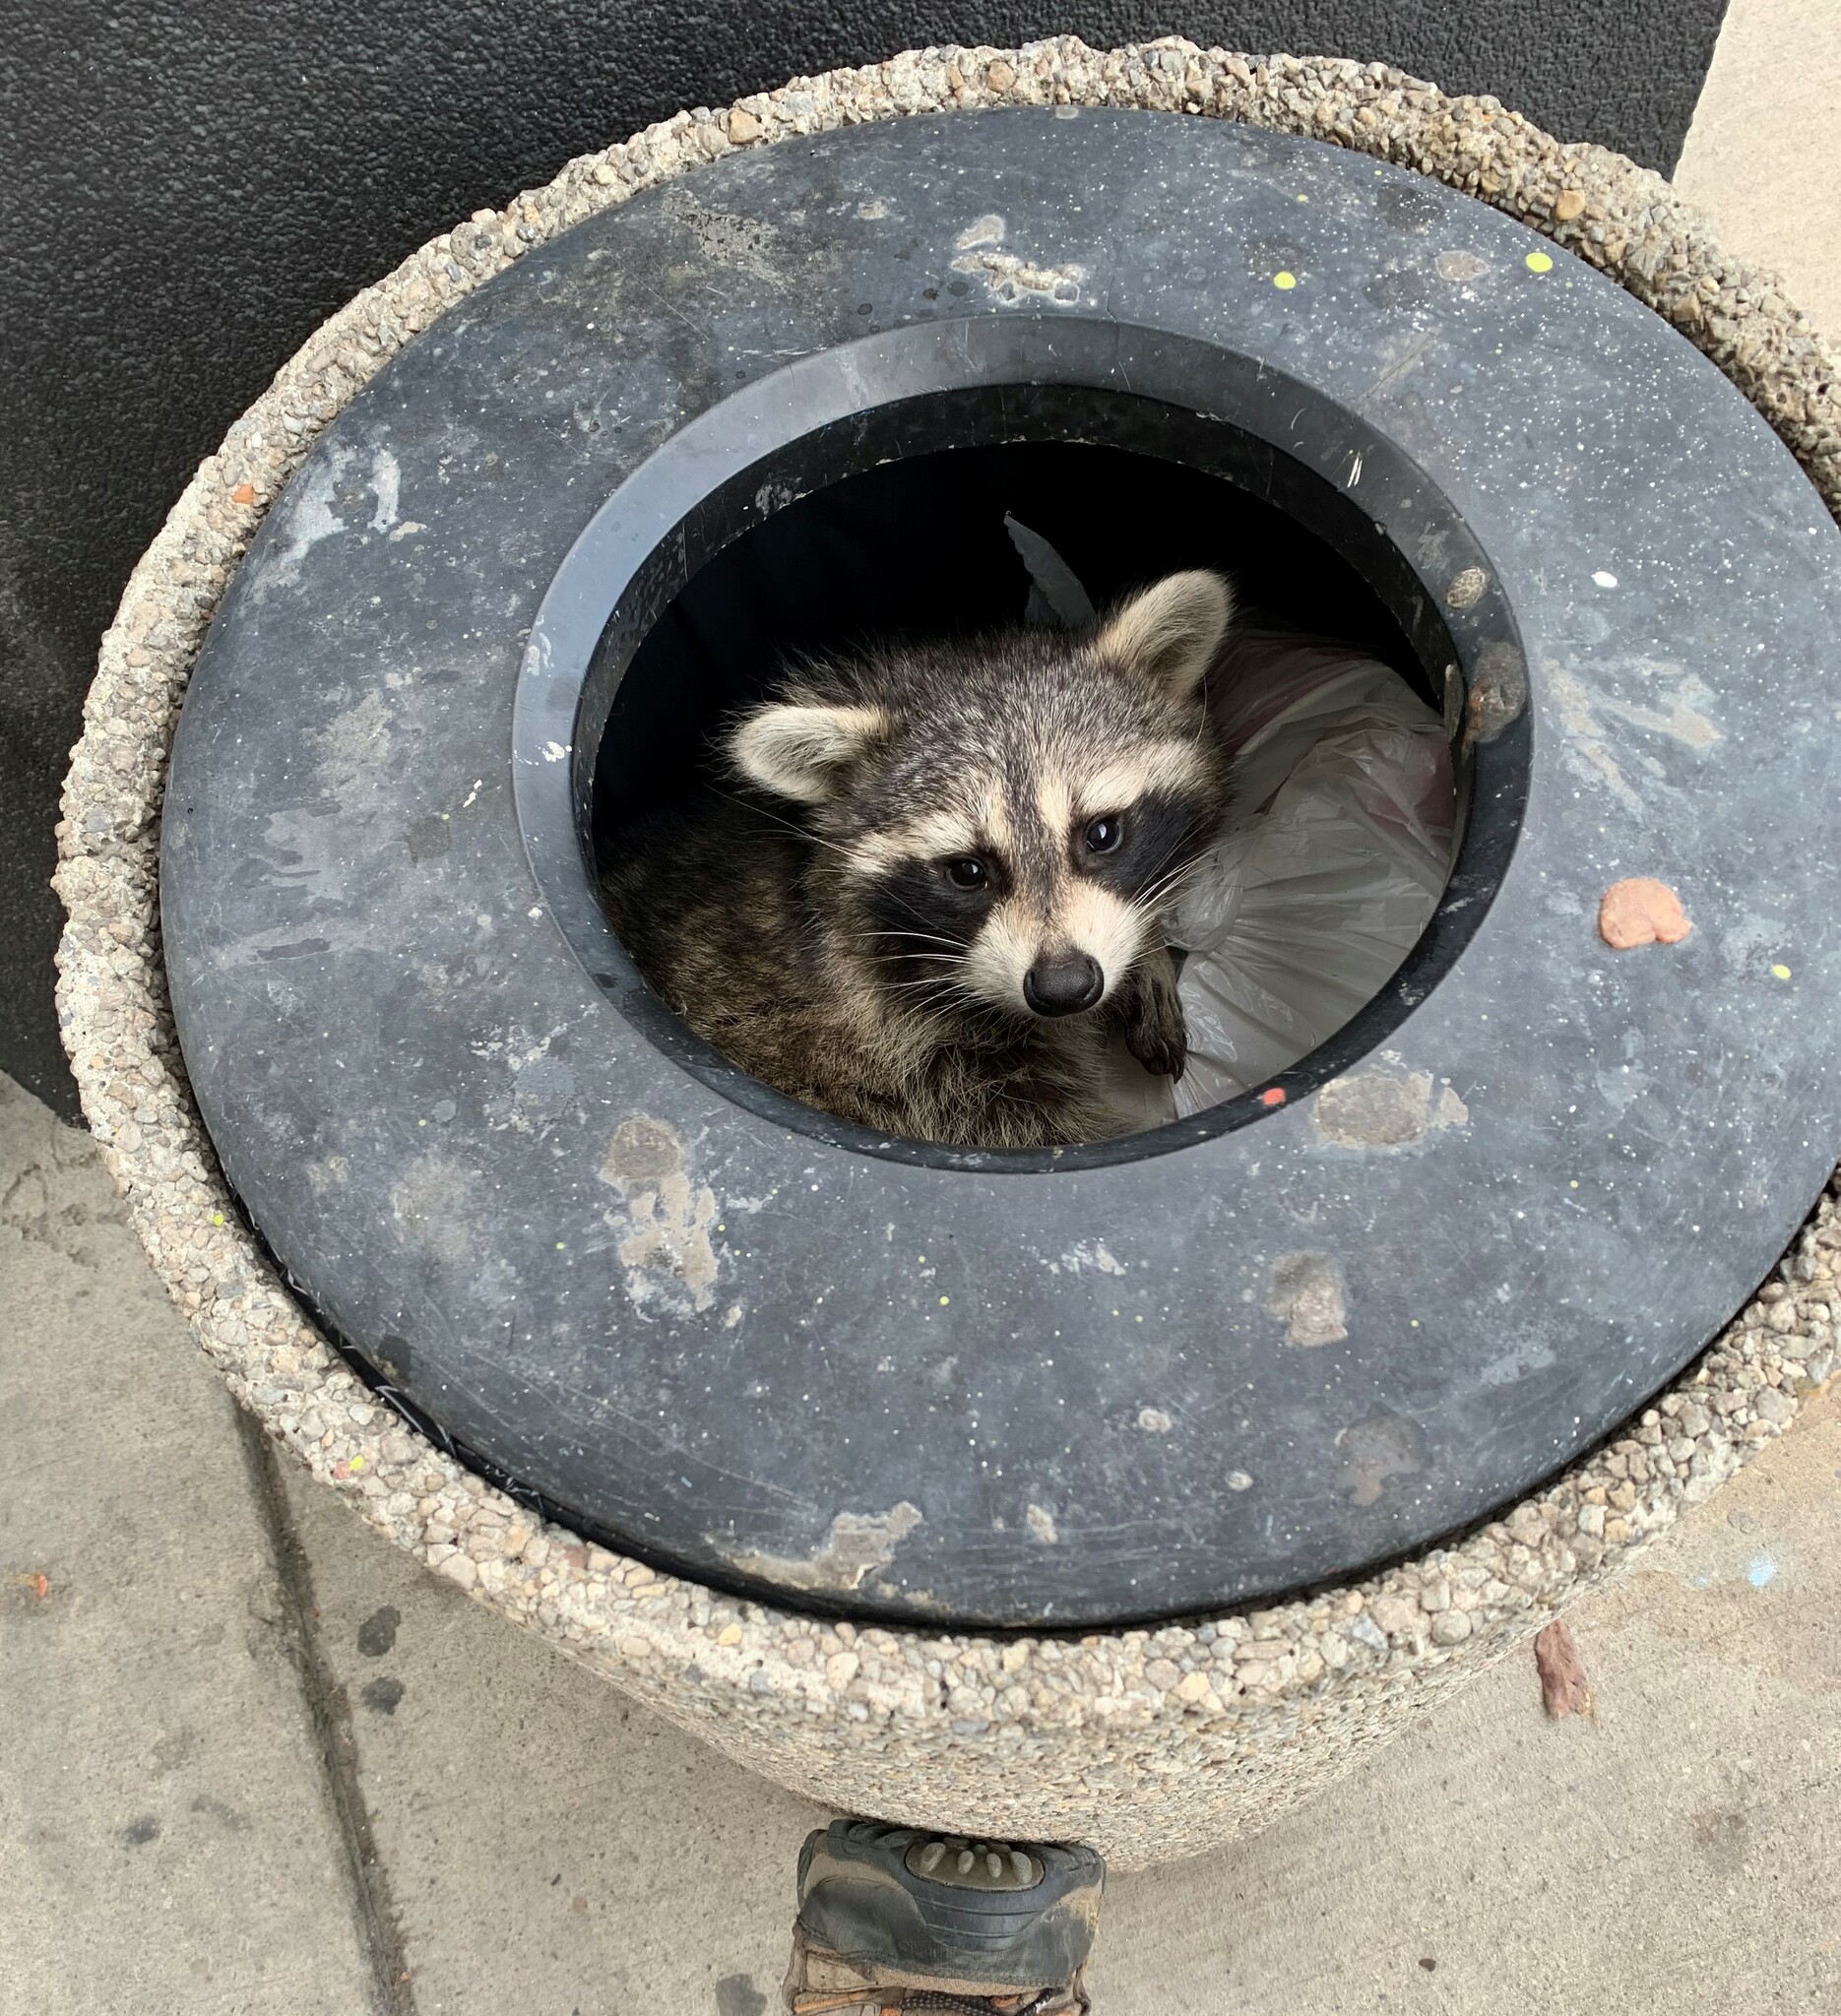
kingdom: Animalia
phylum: Chordata
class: Mammalia
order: Carnivora
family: Procyonidae
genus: Procyon
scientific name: Procyon lotor
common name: Raccoon
